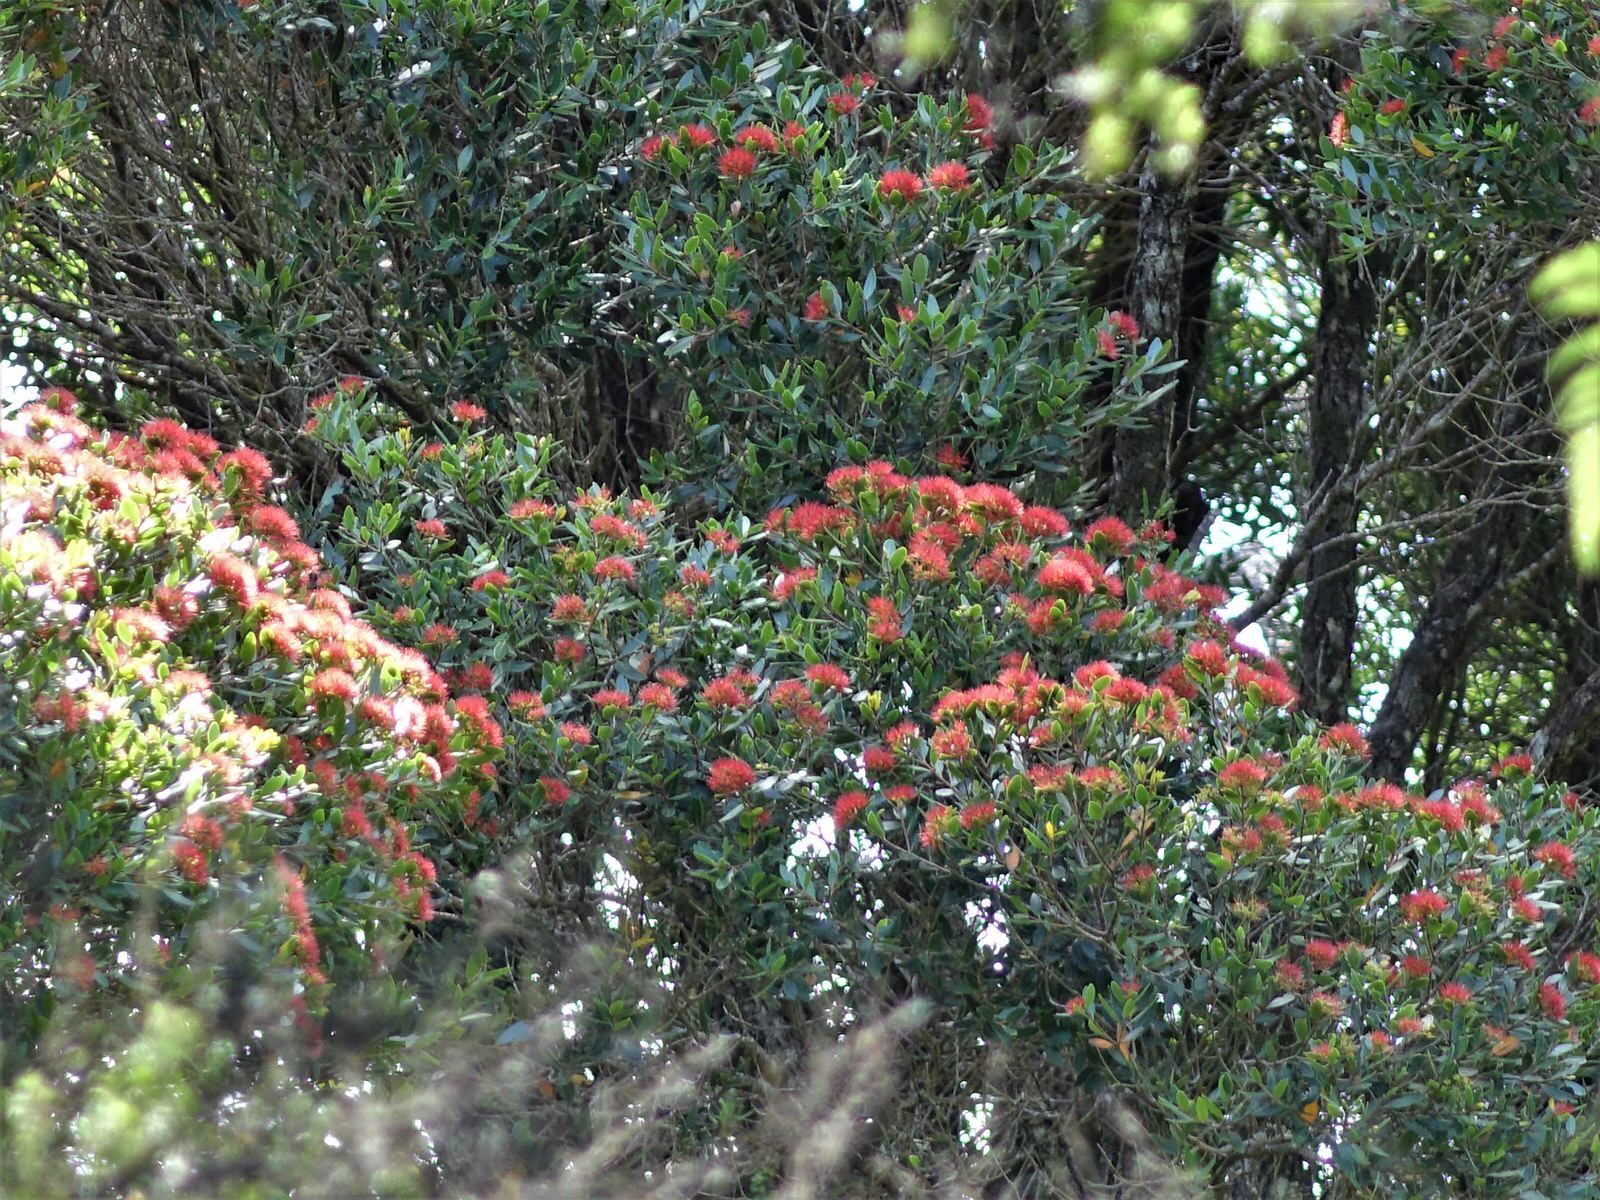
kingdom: Plantae
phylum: Tracheophyta
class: Magnoliopsida
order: Myrtales
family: Myrtaceae
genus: Metrosideros
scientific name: Metrosideros robusta
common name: Northern rata
